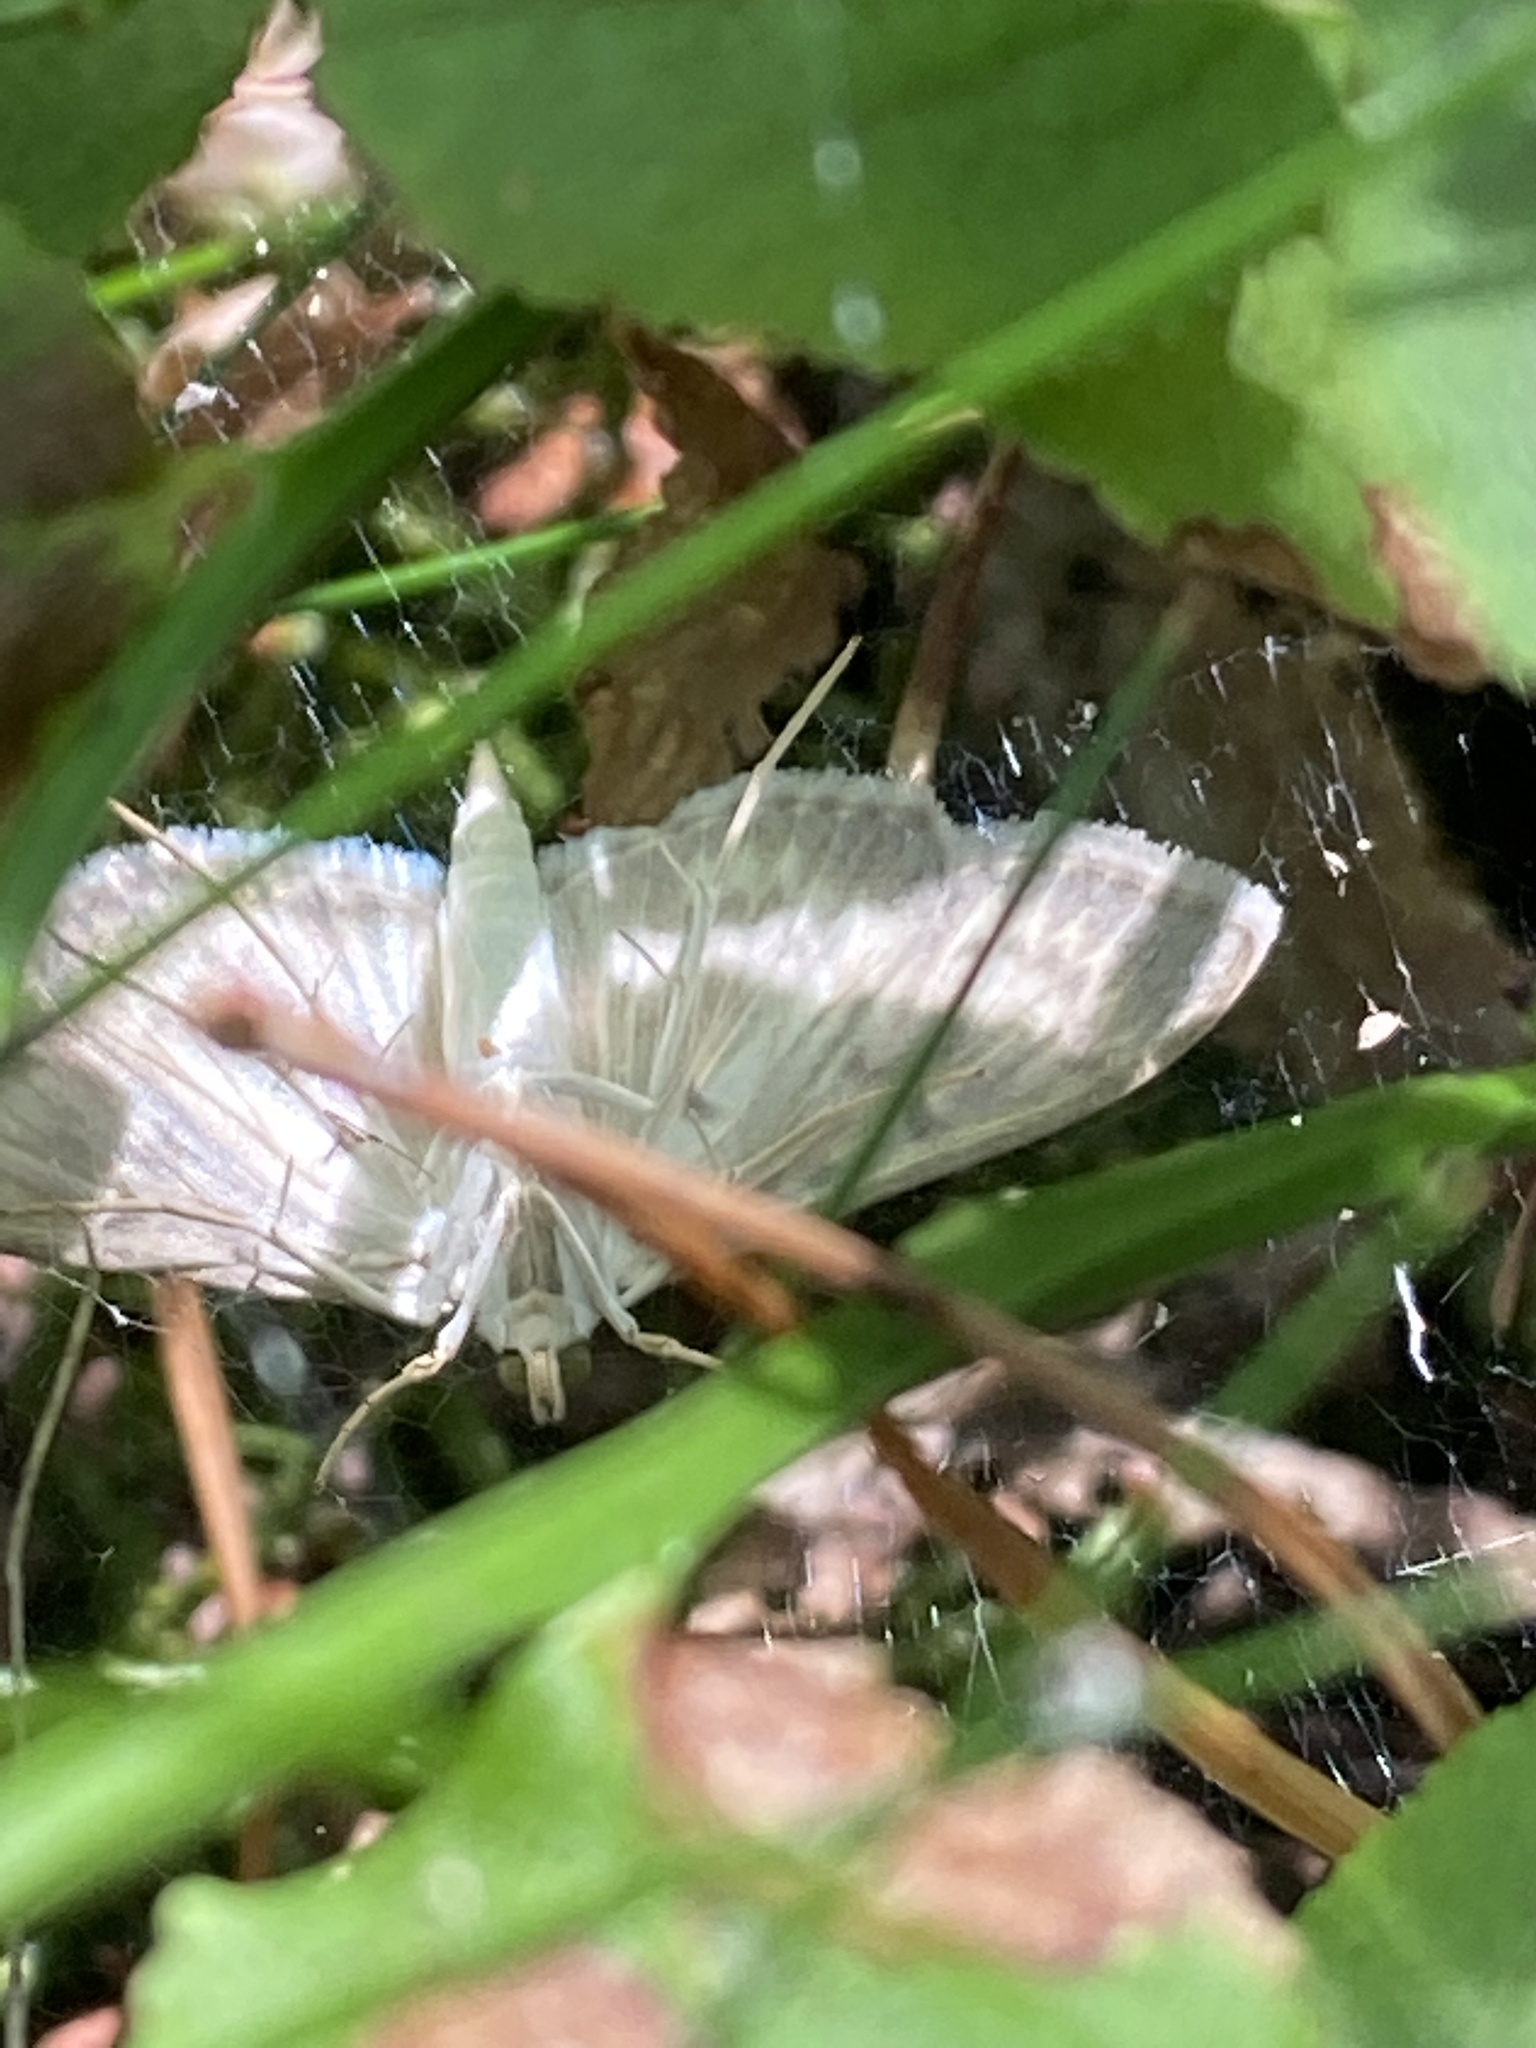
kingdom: Animalia
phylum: Arthropoda
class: Insecta
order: Lepidoptera
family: Crambidae
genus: Patania
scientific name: Patania ruralis
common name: Mother of pearl
